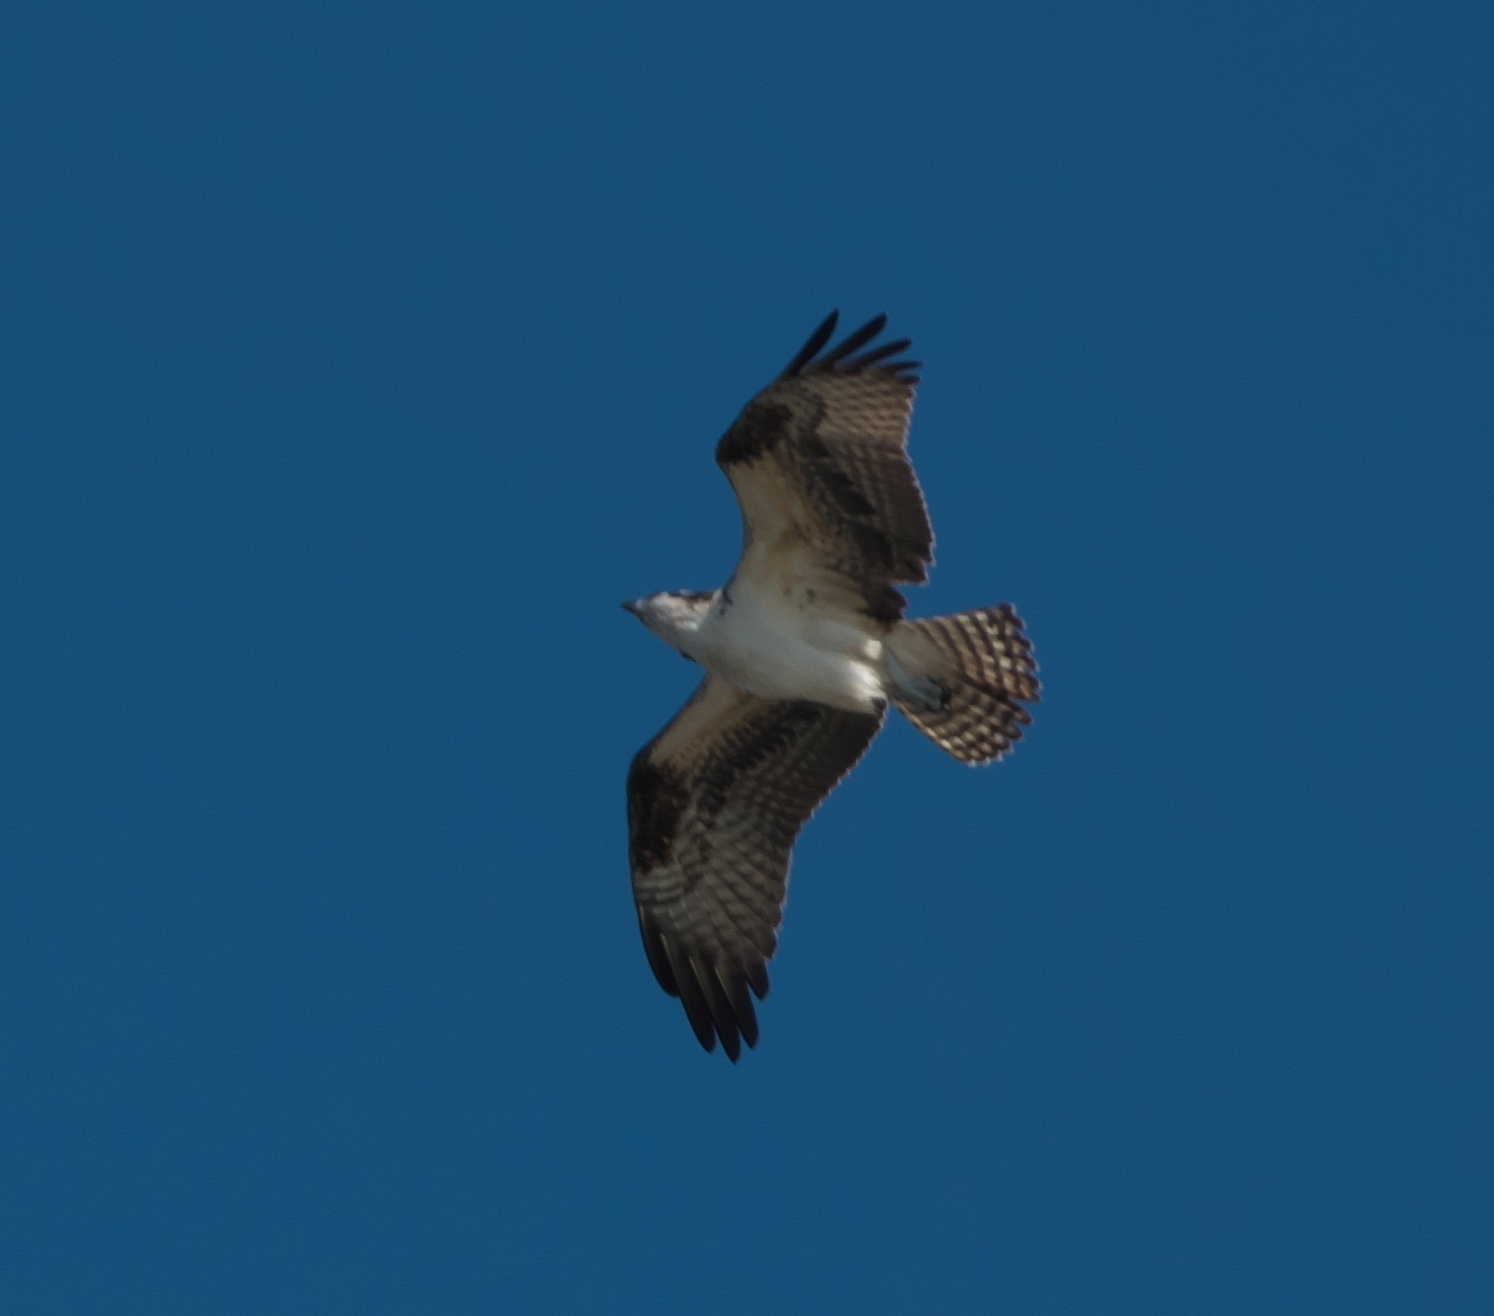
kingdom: Animalia
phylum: Chordata
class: Aves
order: Accipitriformes
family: Pandionidae
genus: Pandion
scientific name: Pandion haliaetus
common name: Osprey
